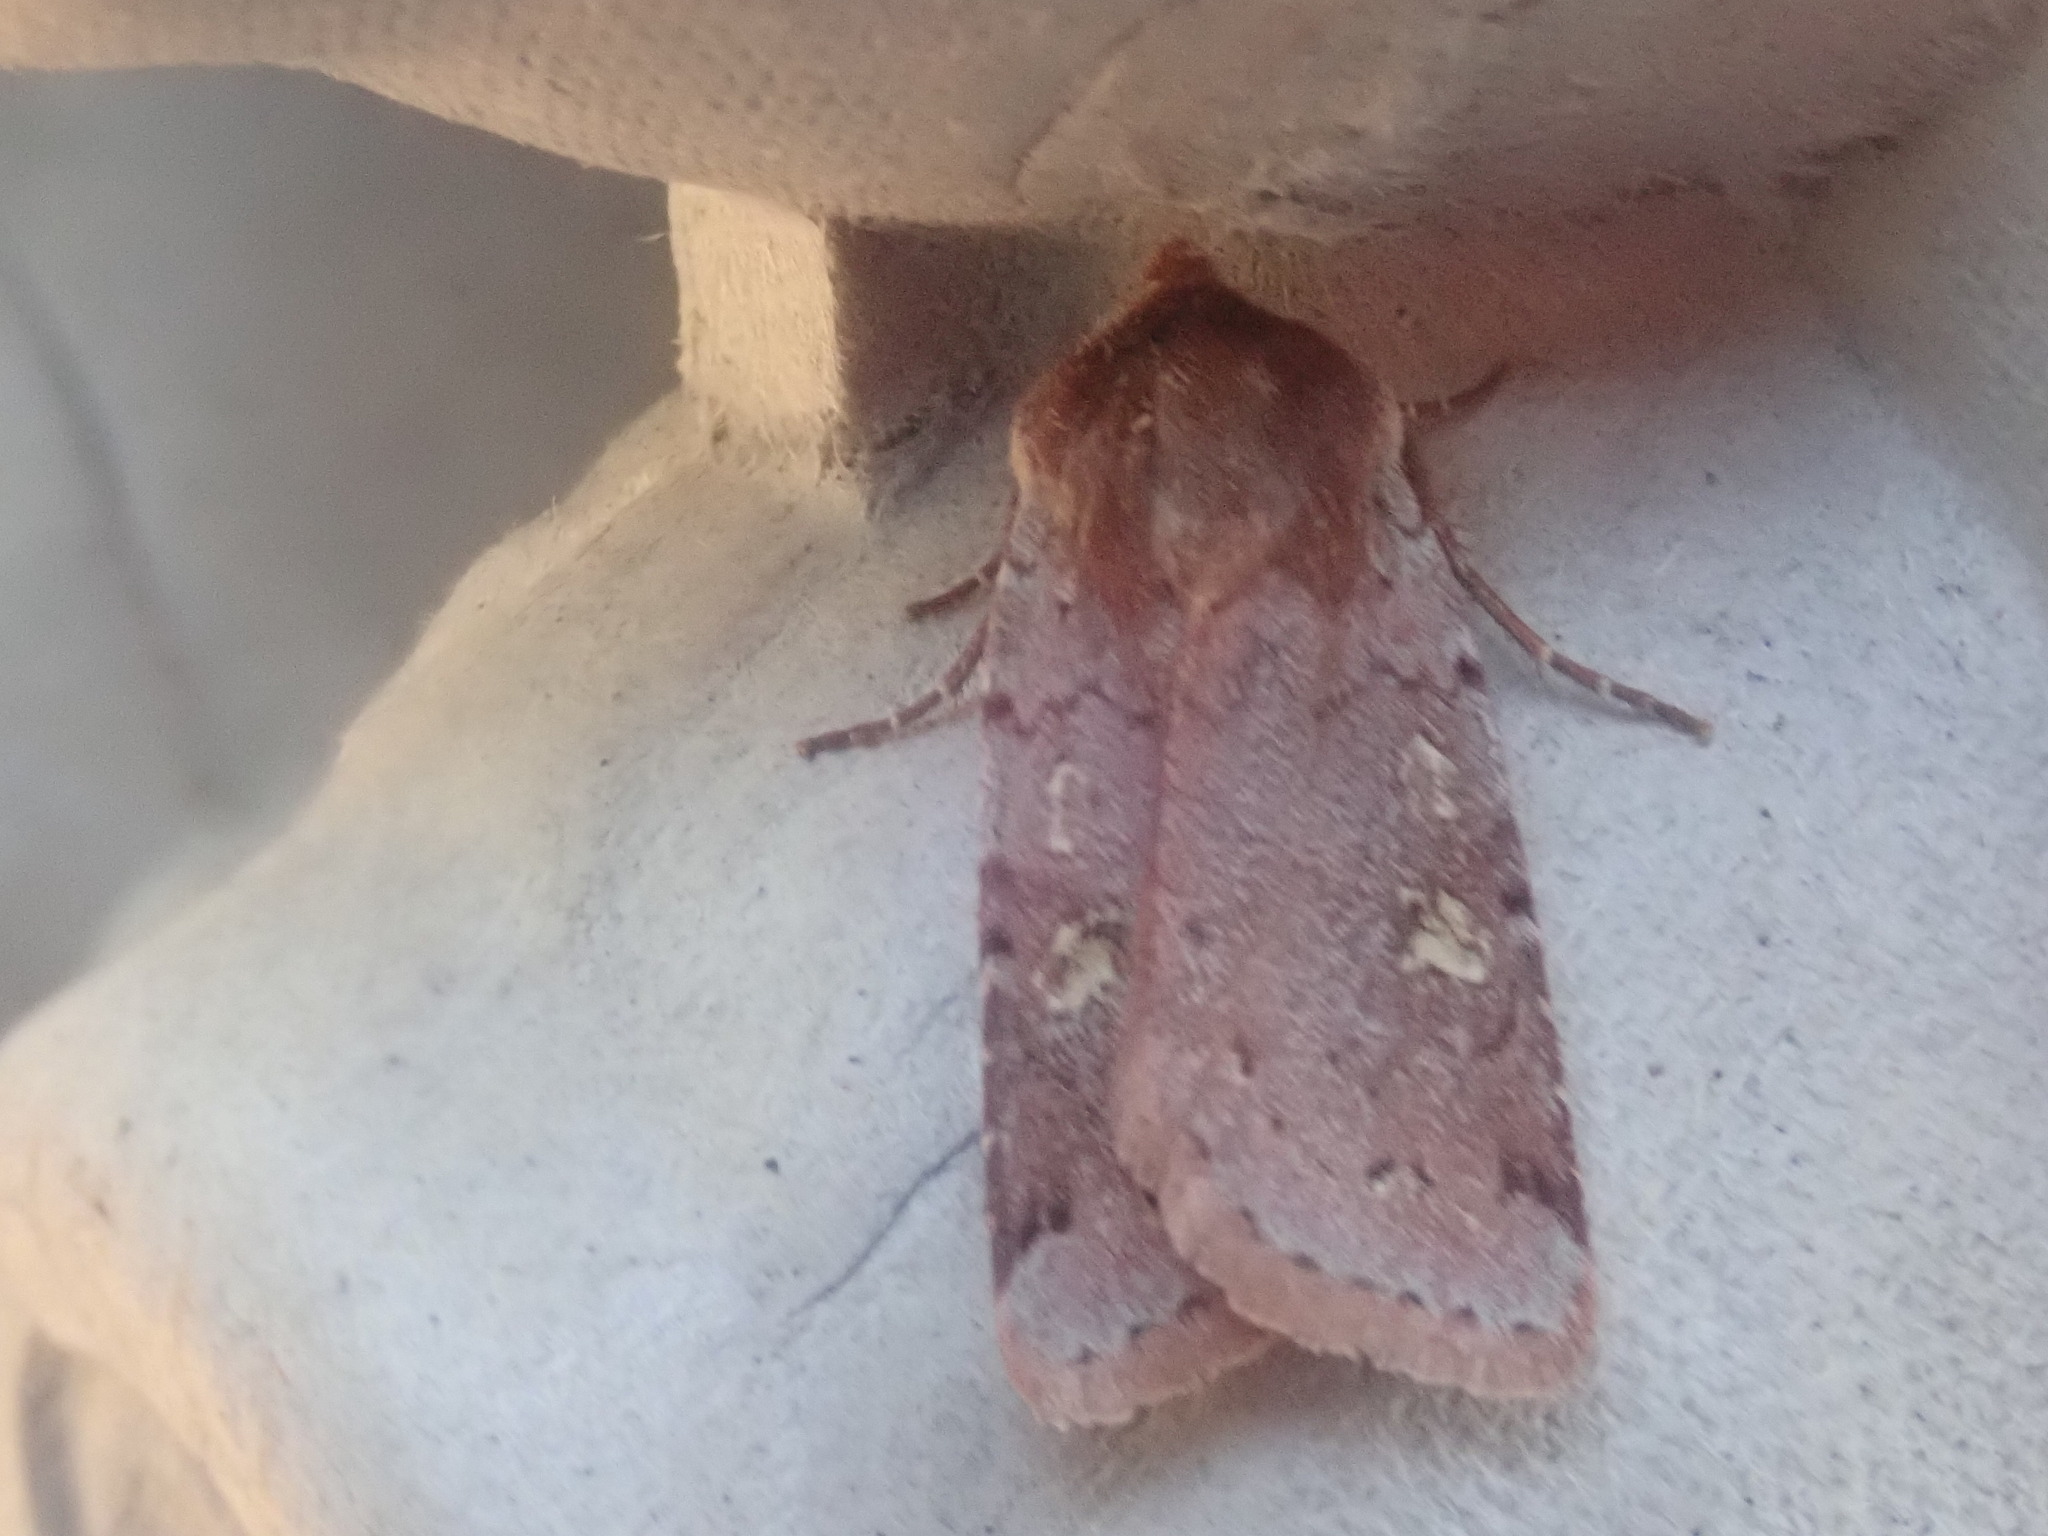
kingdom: Animalia
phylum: Arthropoda
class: Insecta
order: Lepidoptera
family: Noctuidae
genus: Cerastis
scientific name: Cerastis fishii
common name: Fish's dart
